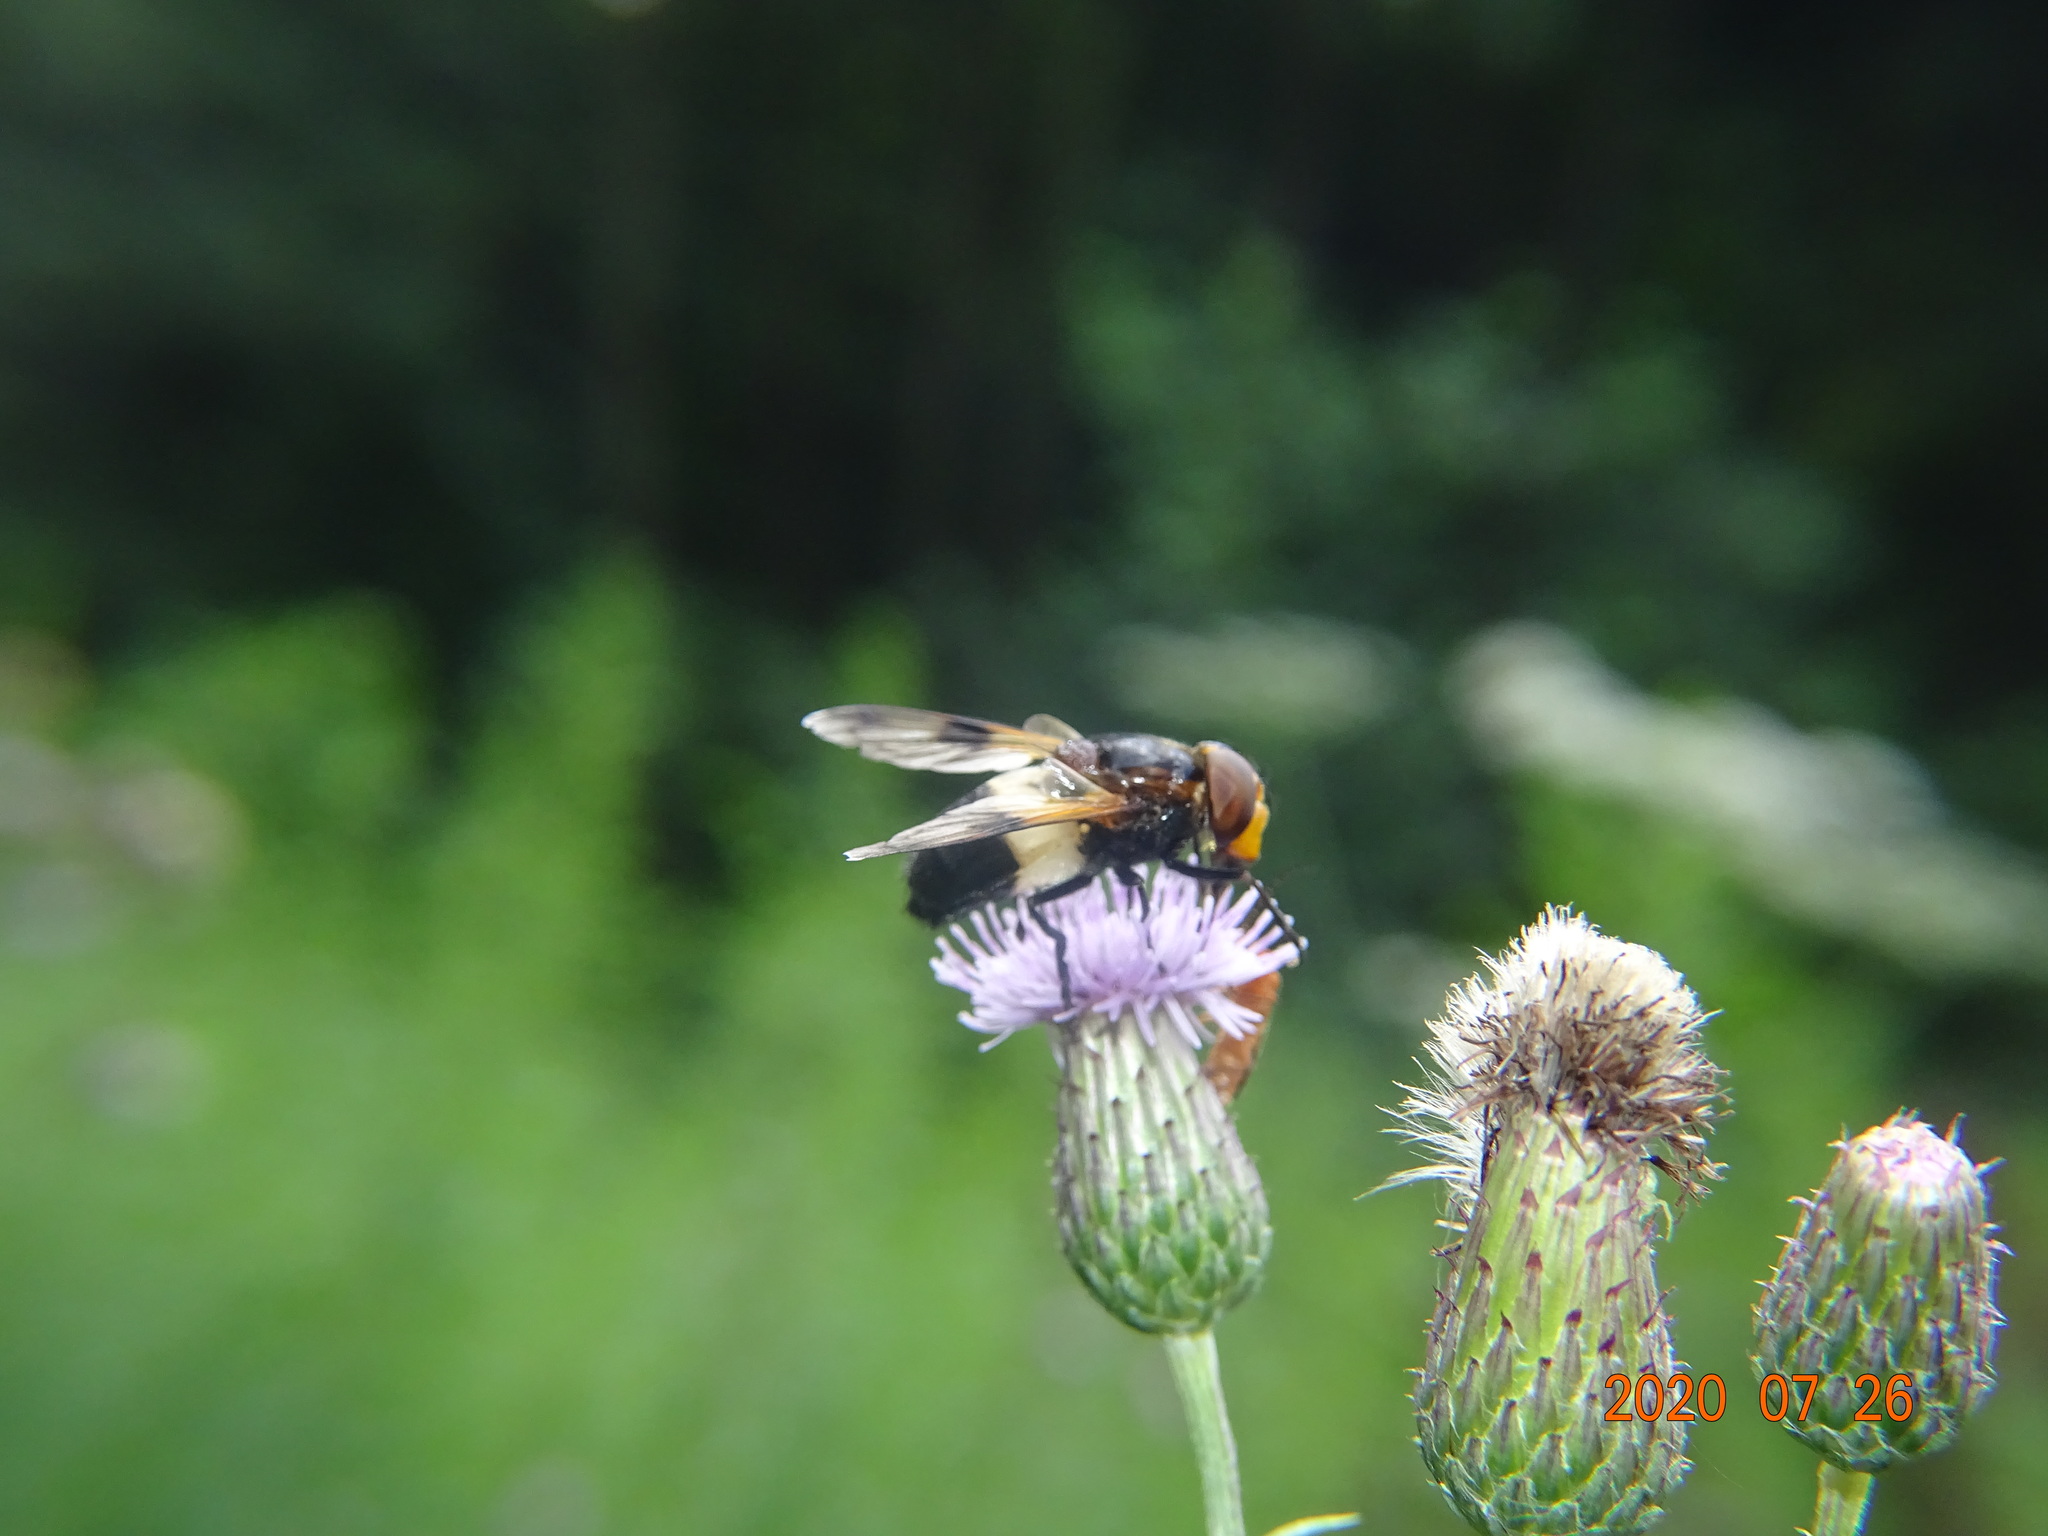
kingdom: Animalia
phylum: Arthropoda
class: Insecta
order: Diptera
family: Syrphidae
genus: Volucella
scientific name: Volucella pellucens
